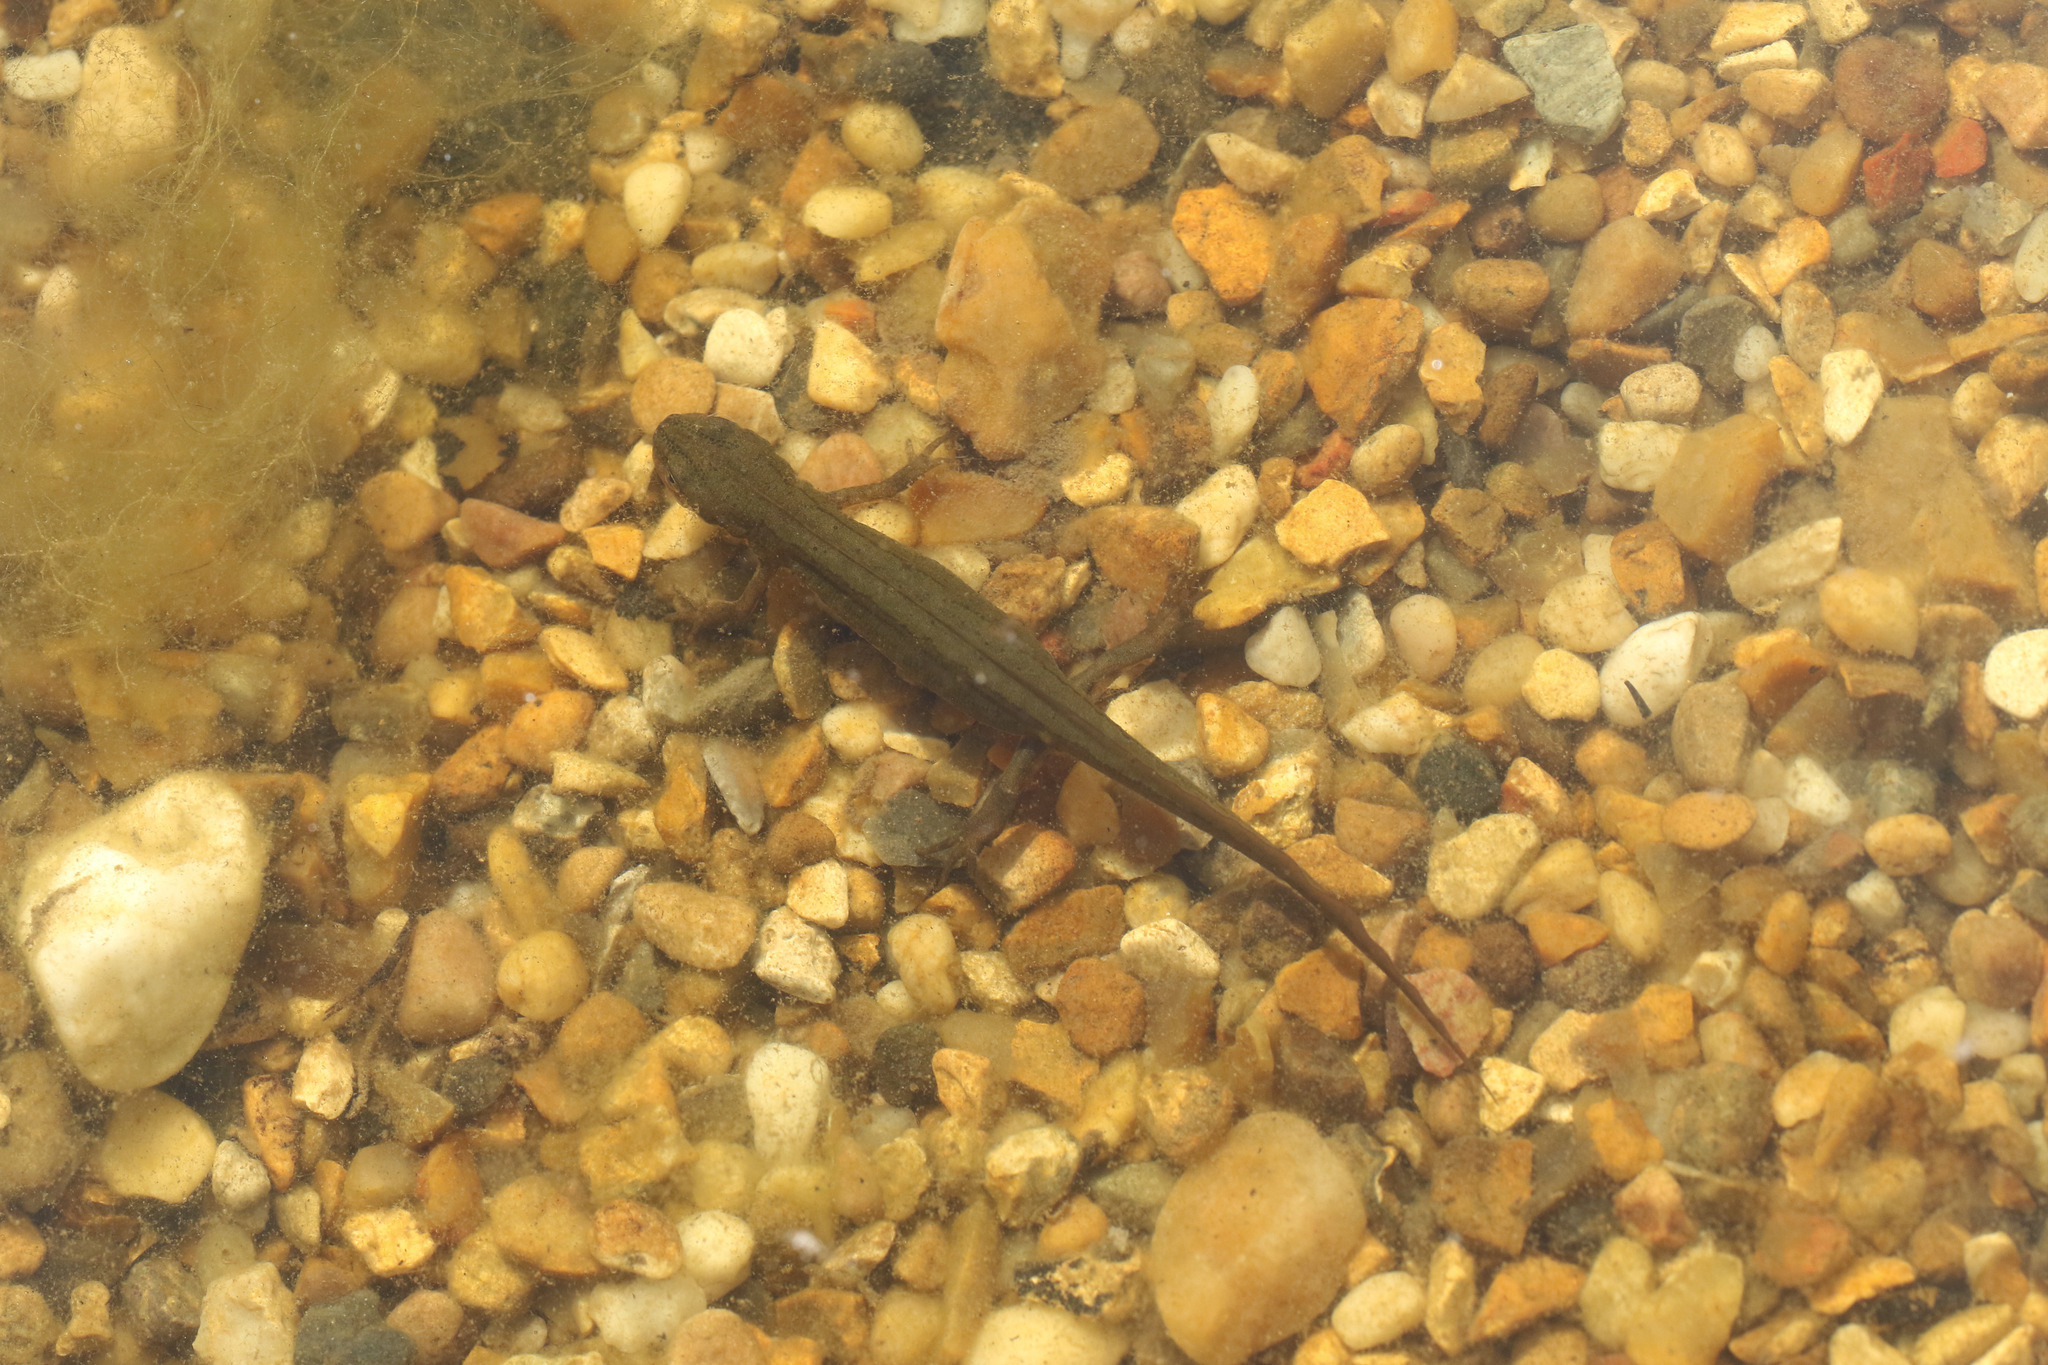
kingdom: Animalia
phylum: Chordata
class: Amphibia
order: Caudata
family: Salamandridae
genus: Lissotriton
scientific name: Lissotriton vulgaris
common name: Smooth newt
